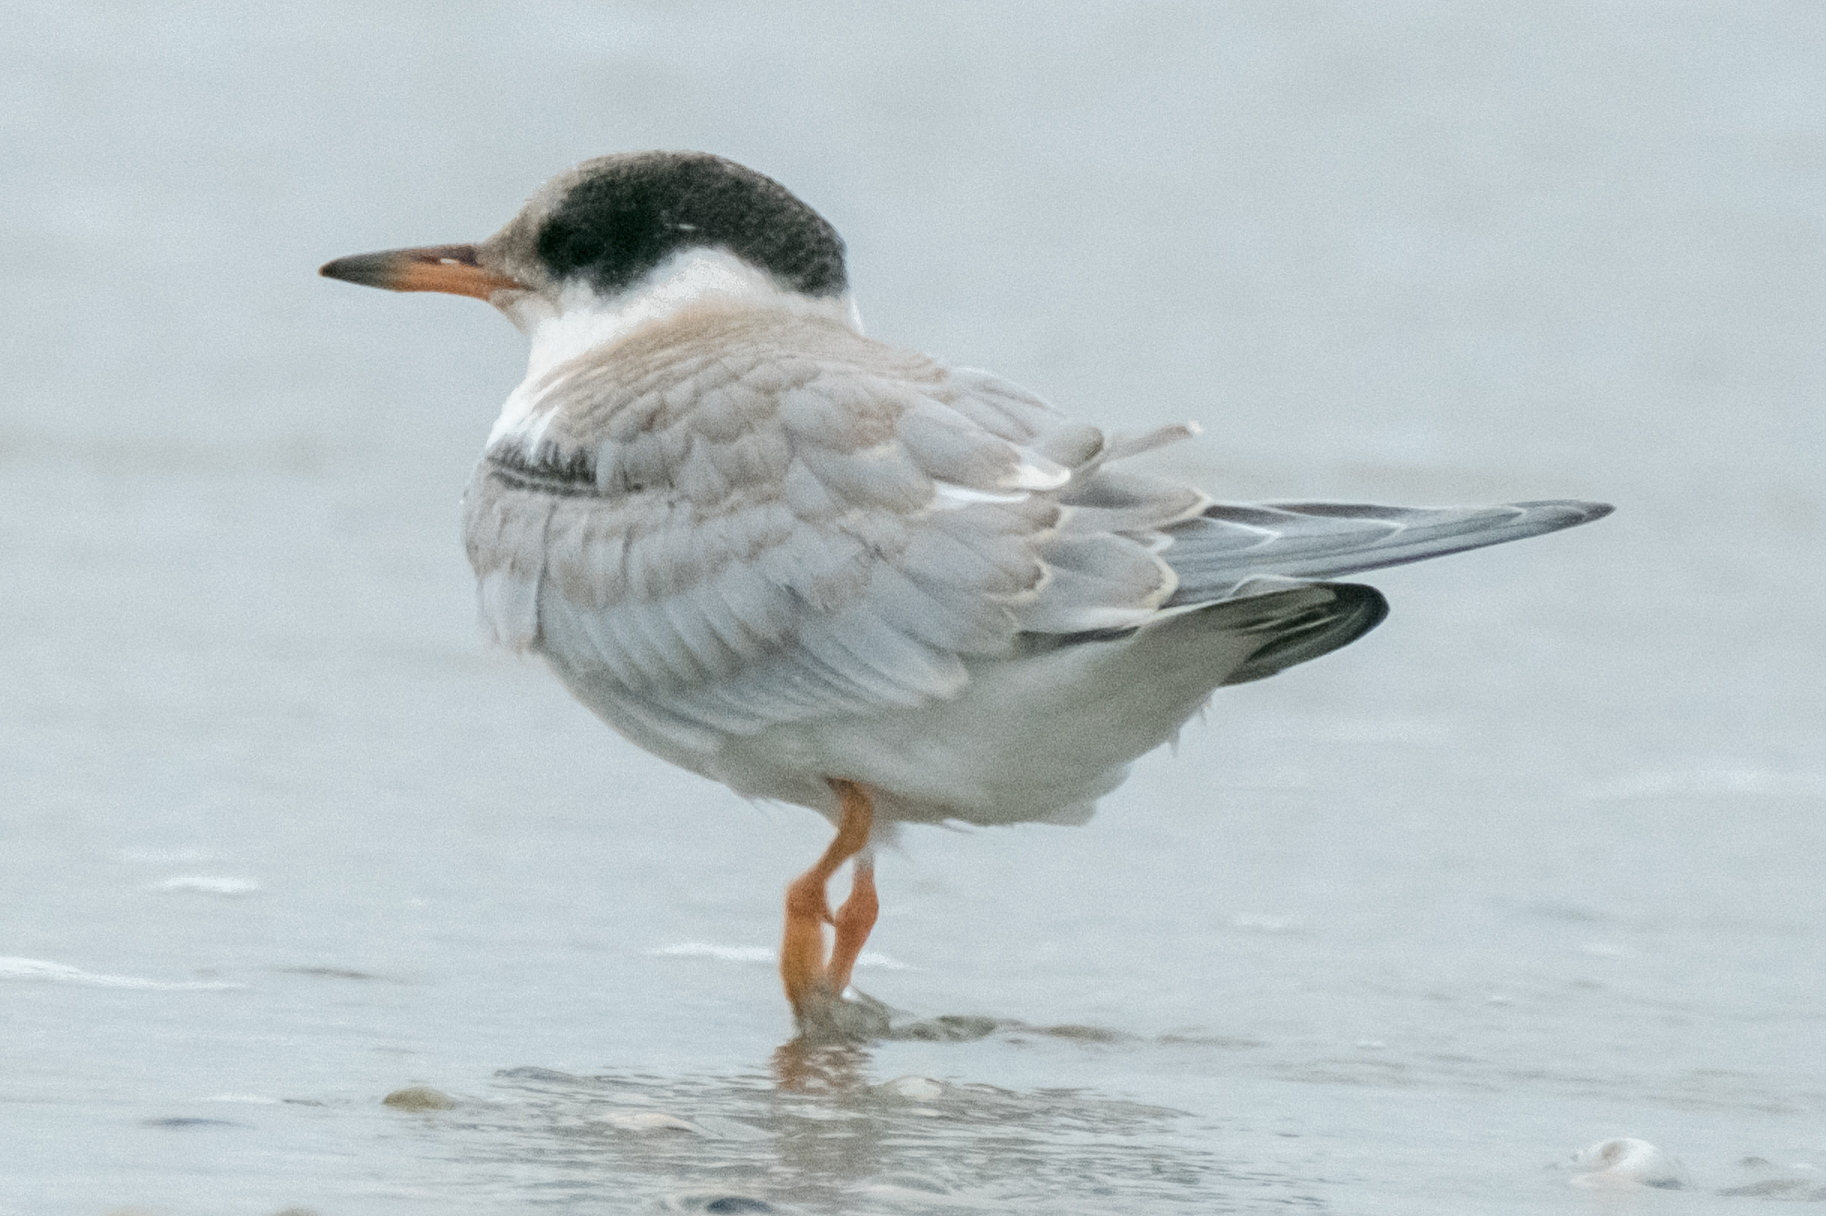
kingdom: Animalia
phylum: Chordata
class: Aves
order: Charadriiformes
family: Laridae
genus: Sterna
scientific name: Sterna hirundo
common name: Common tern
